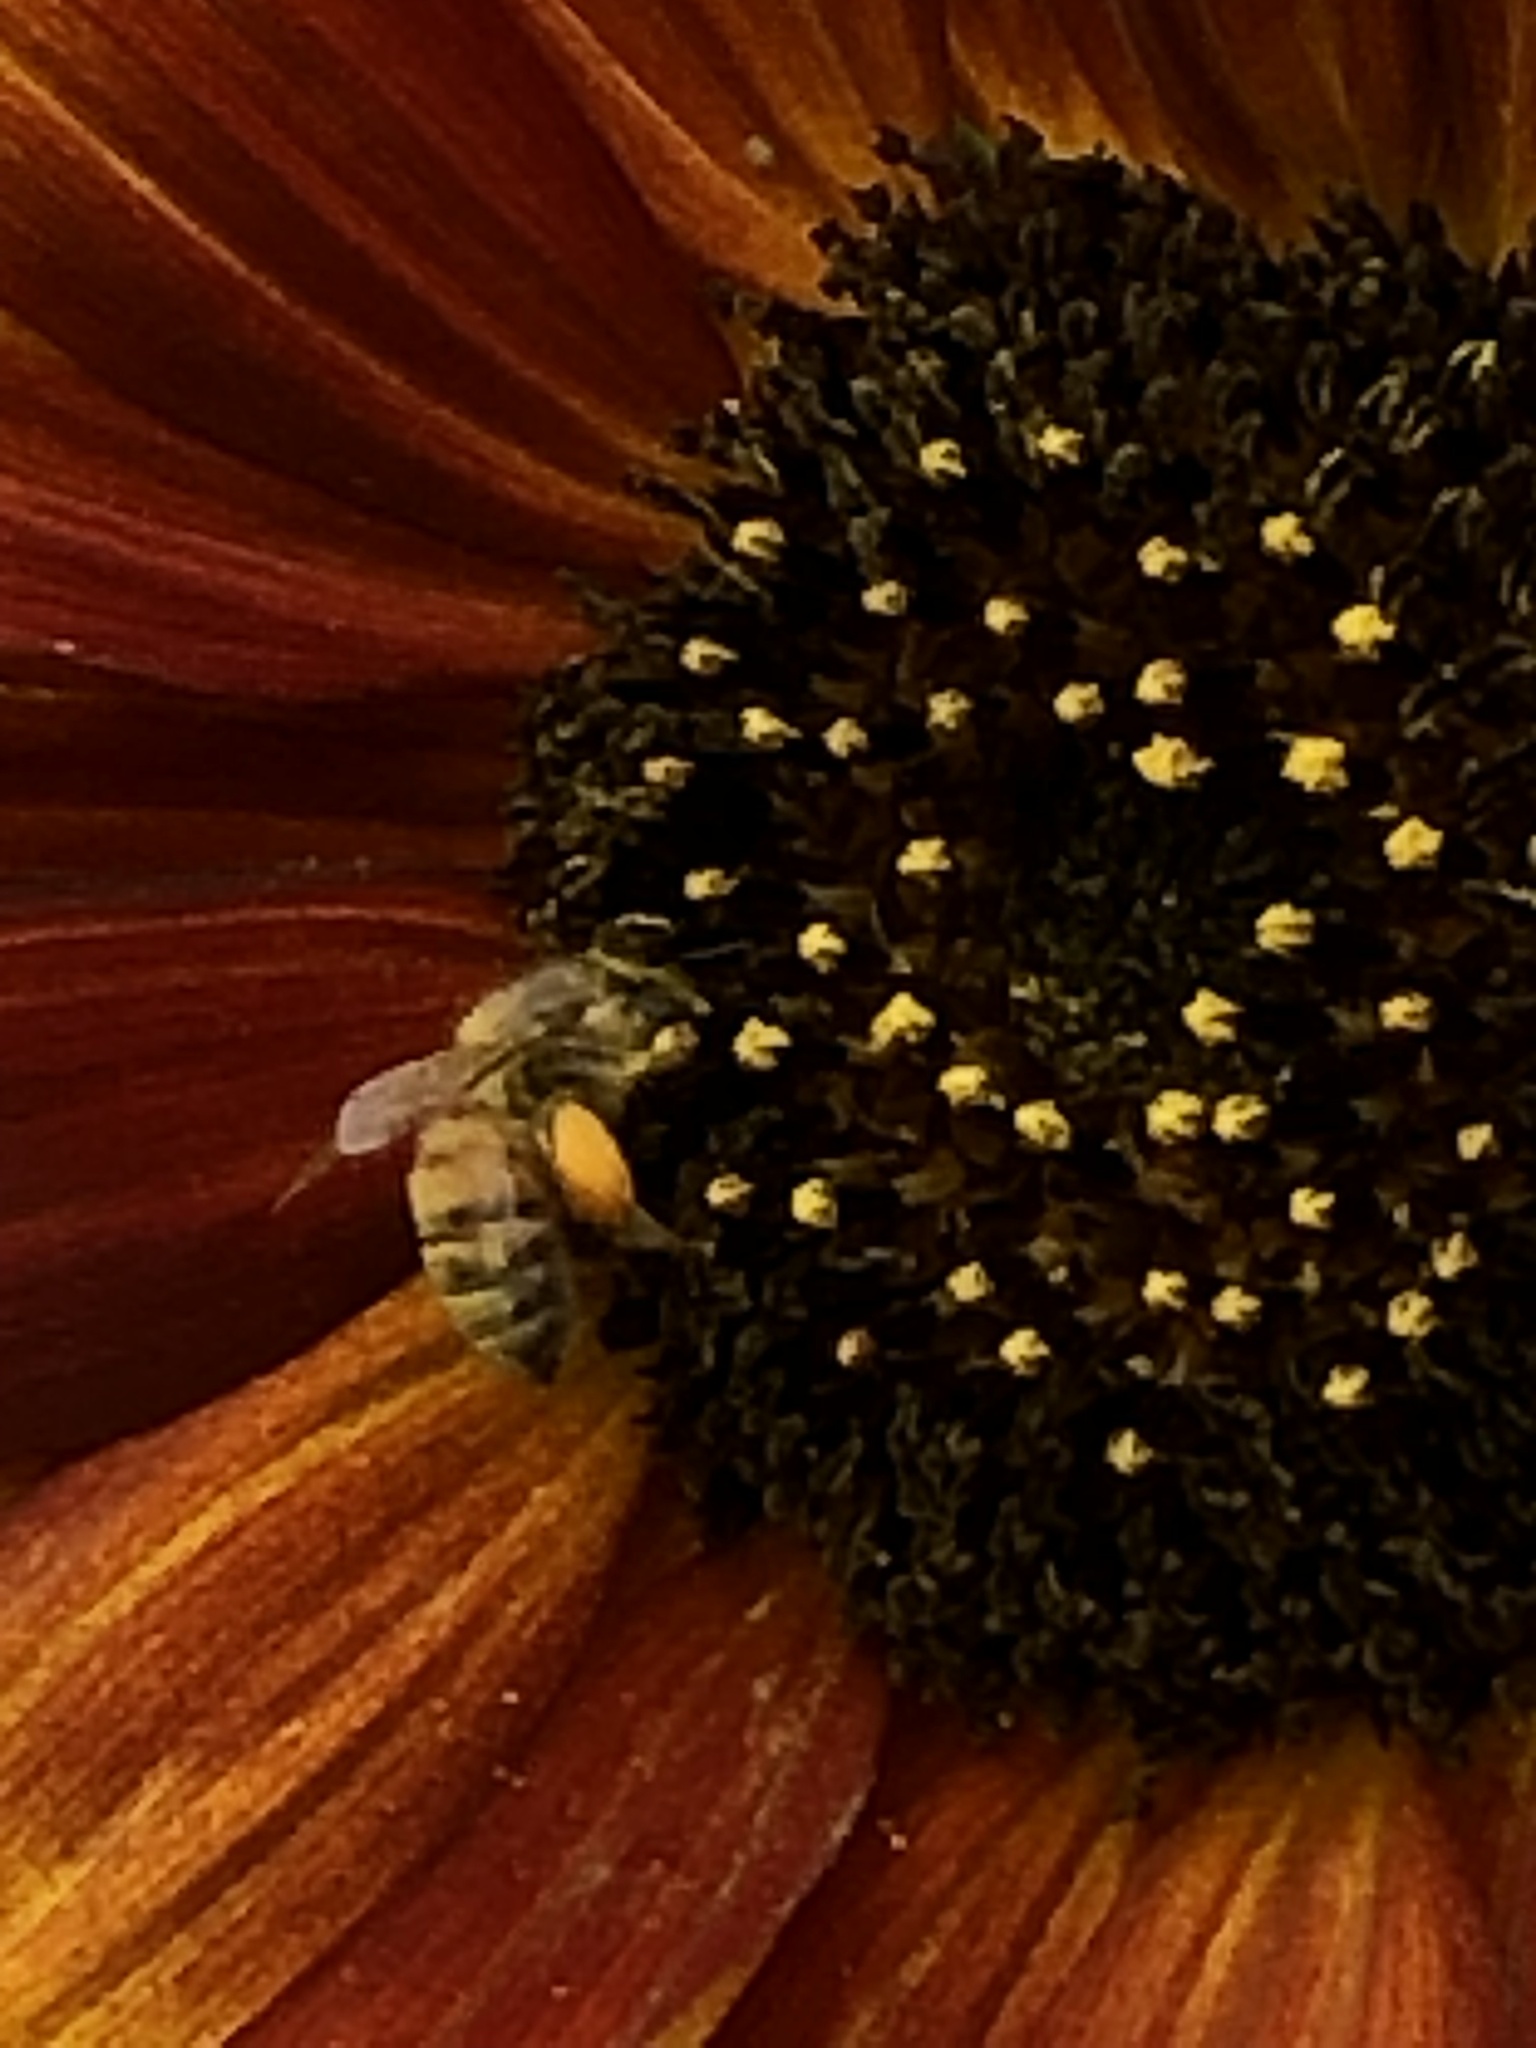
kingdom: Animalia
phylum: Arthropoda
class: Insecta
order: Hymenoptera
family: Apidae
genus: Apis
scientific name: Apis mellifera
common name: Honey bee
